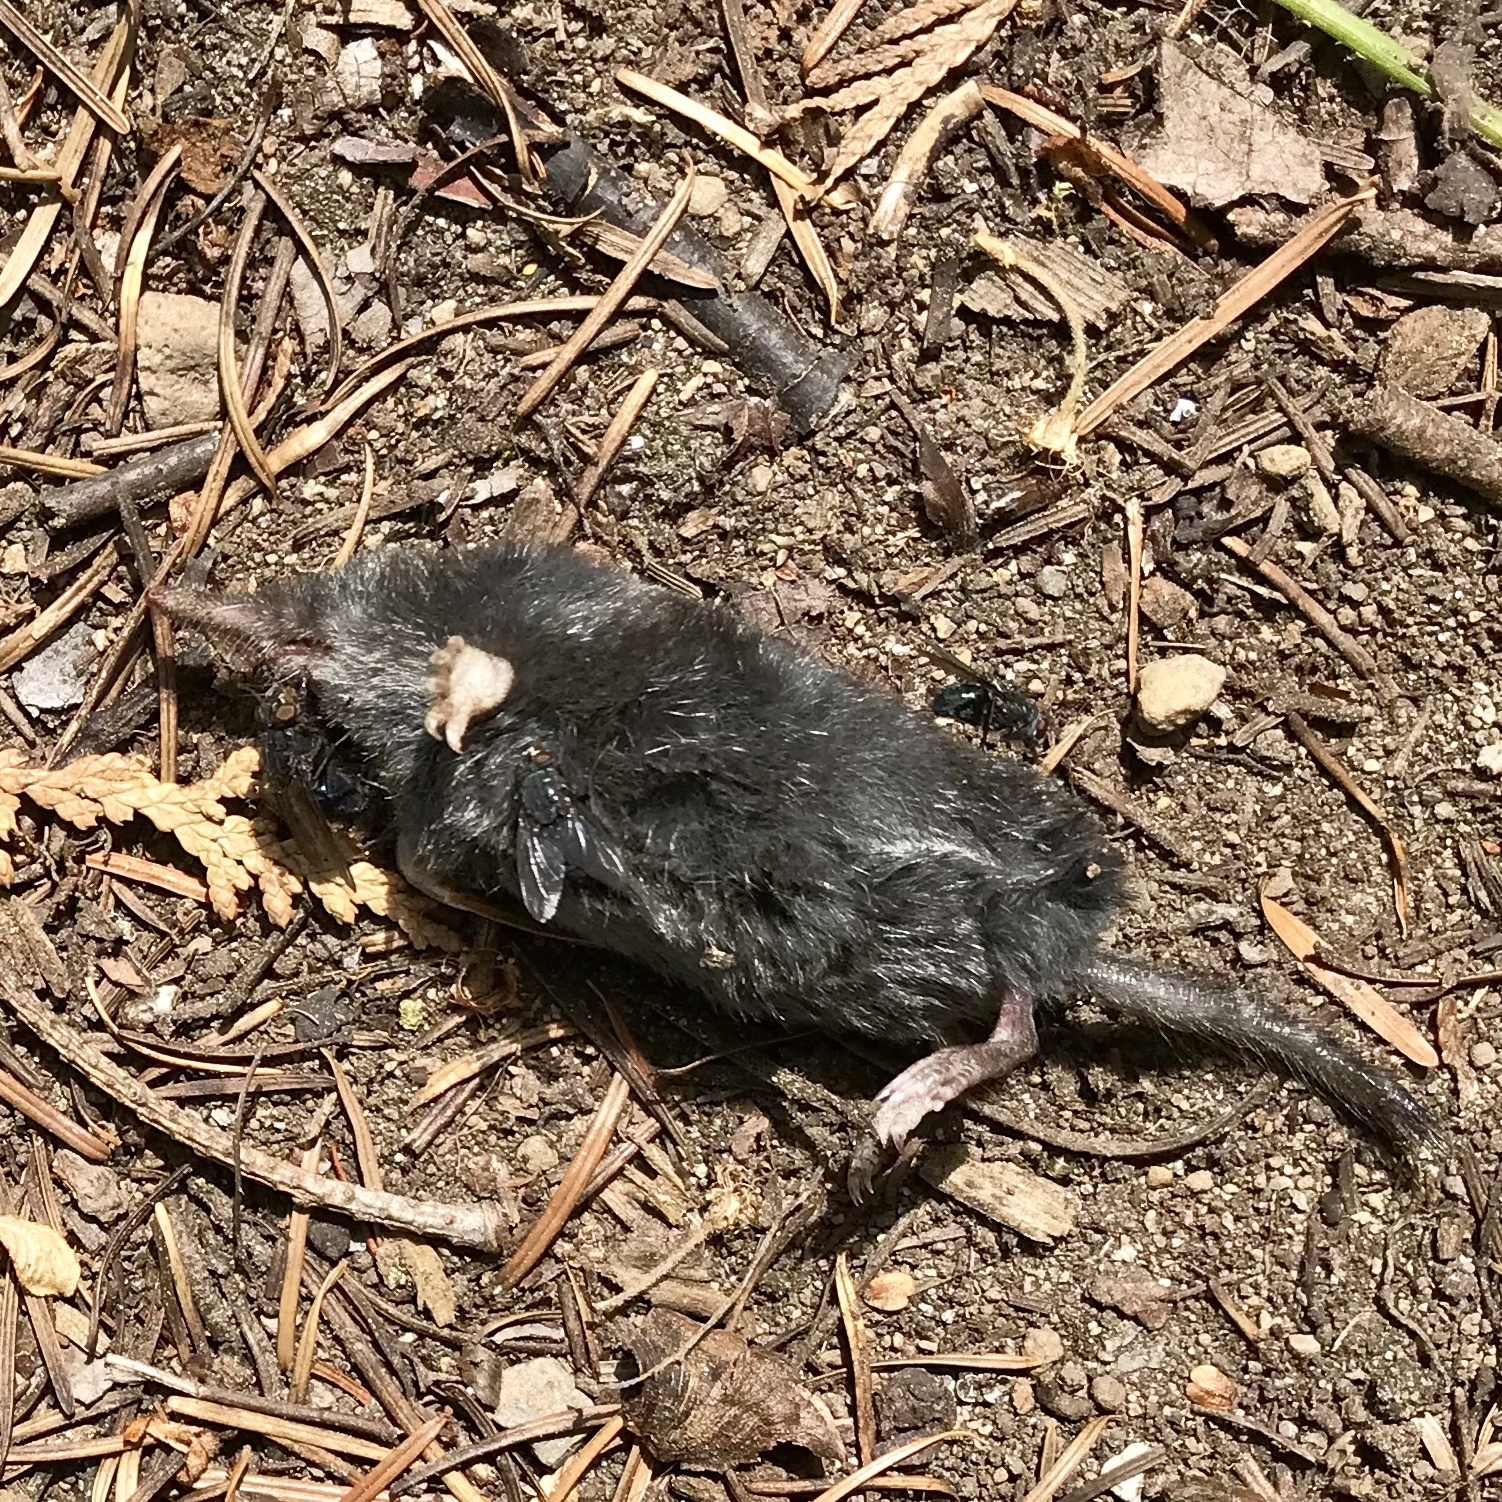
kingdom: Animalia
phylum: Chordata
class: Mammalia
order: Soricomorpha
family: Talpidae
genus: Neurotrichus
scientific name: Neurotrichus gibbsii
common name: American shrew mole
